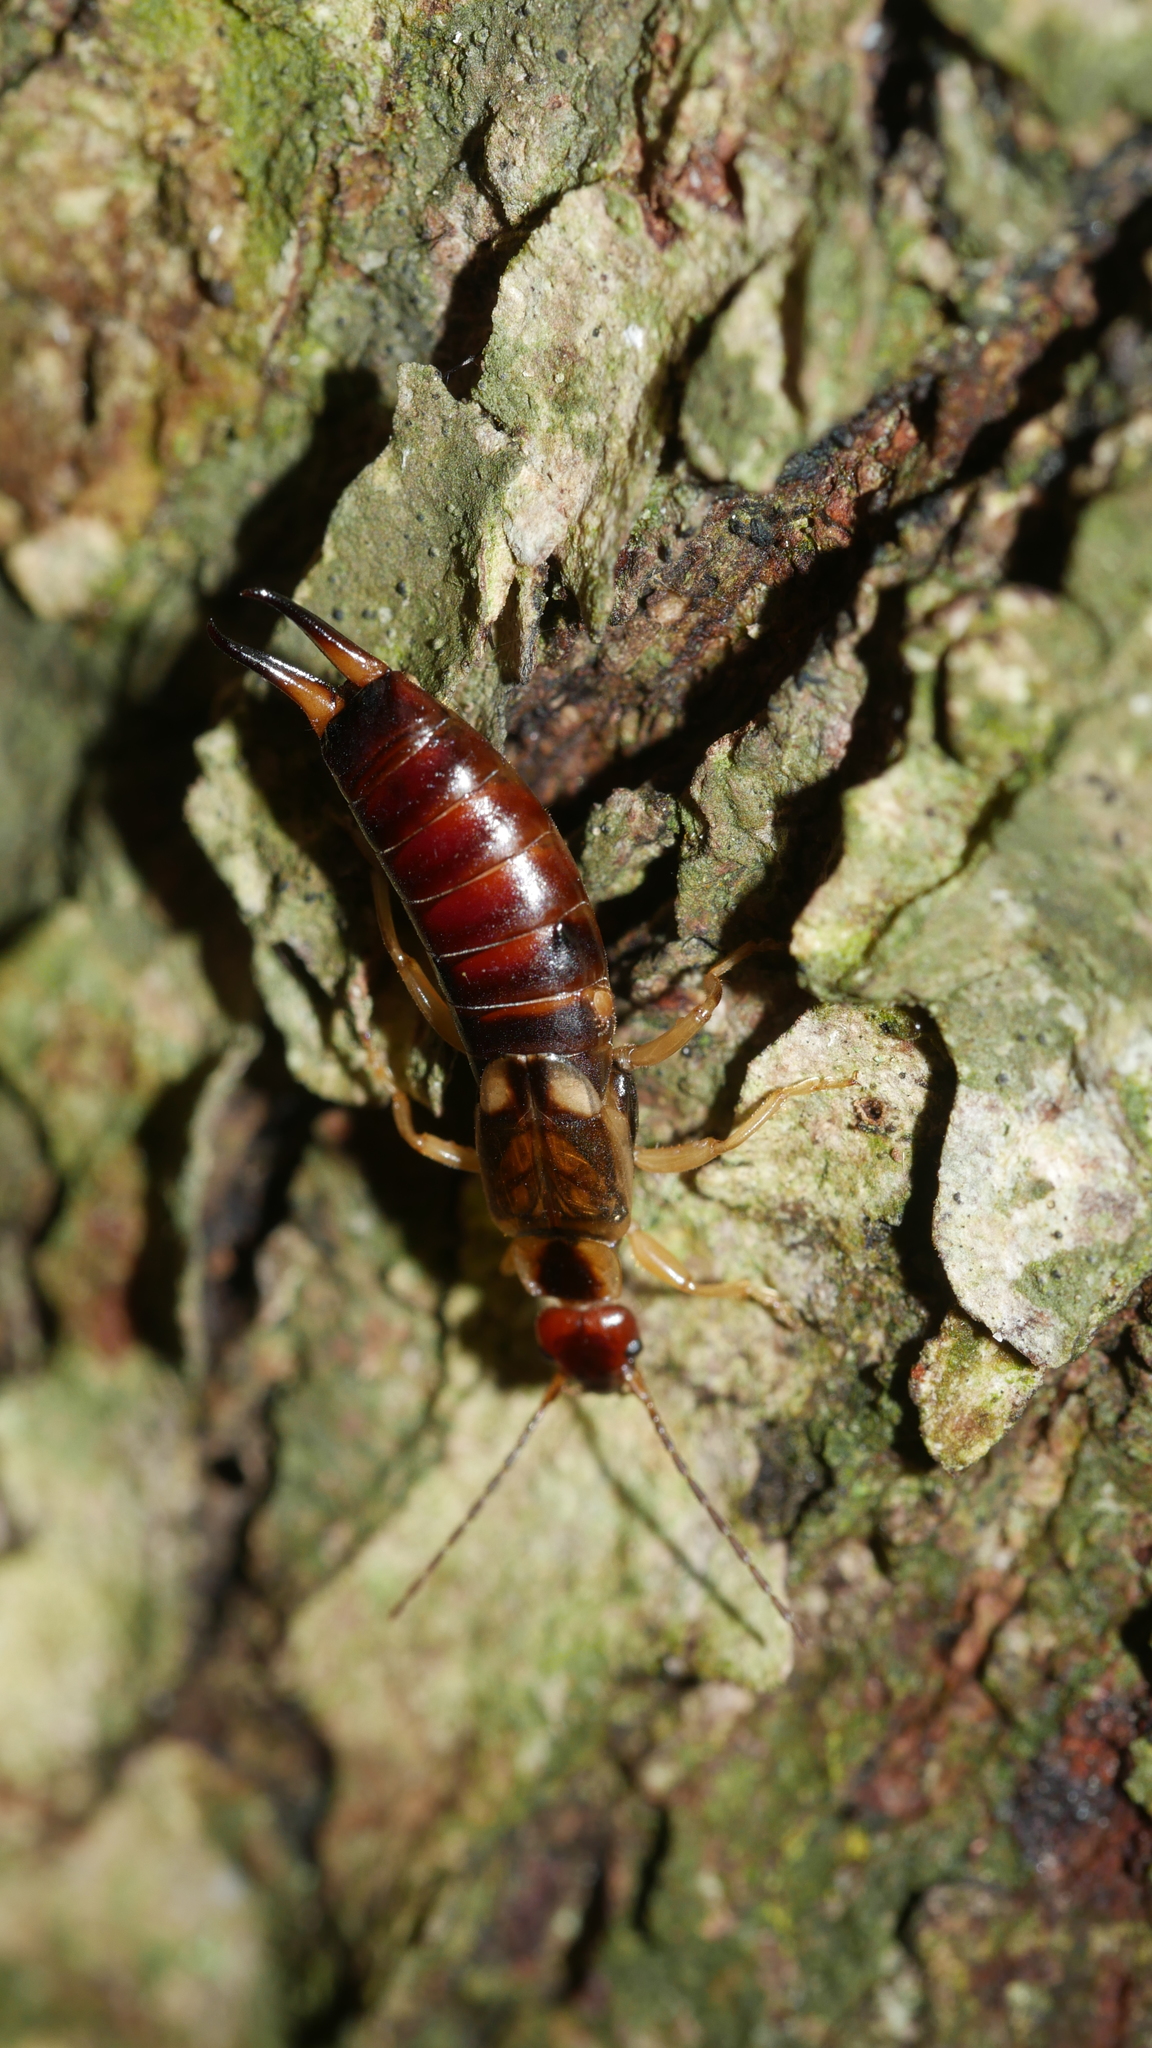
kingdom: Animalia
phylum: Arthropoda
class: Insecta
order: Dermaptera
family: Forficulidae
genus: Forficula
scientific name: Forficula
